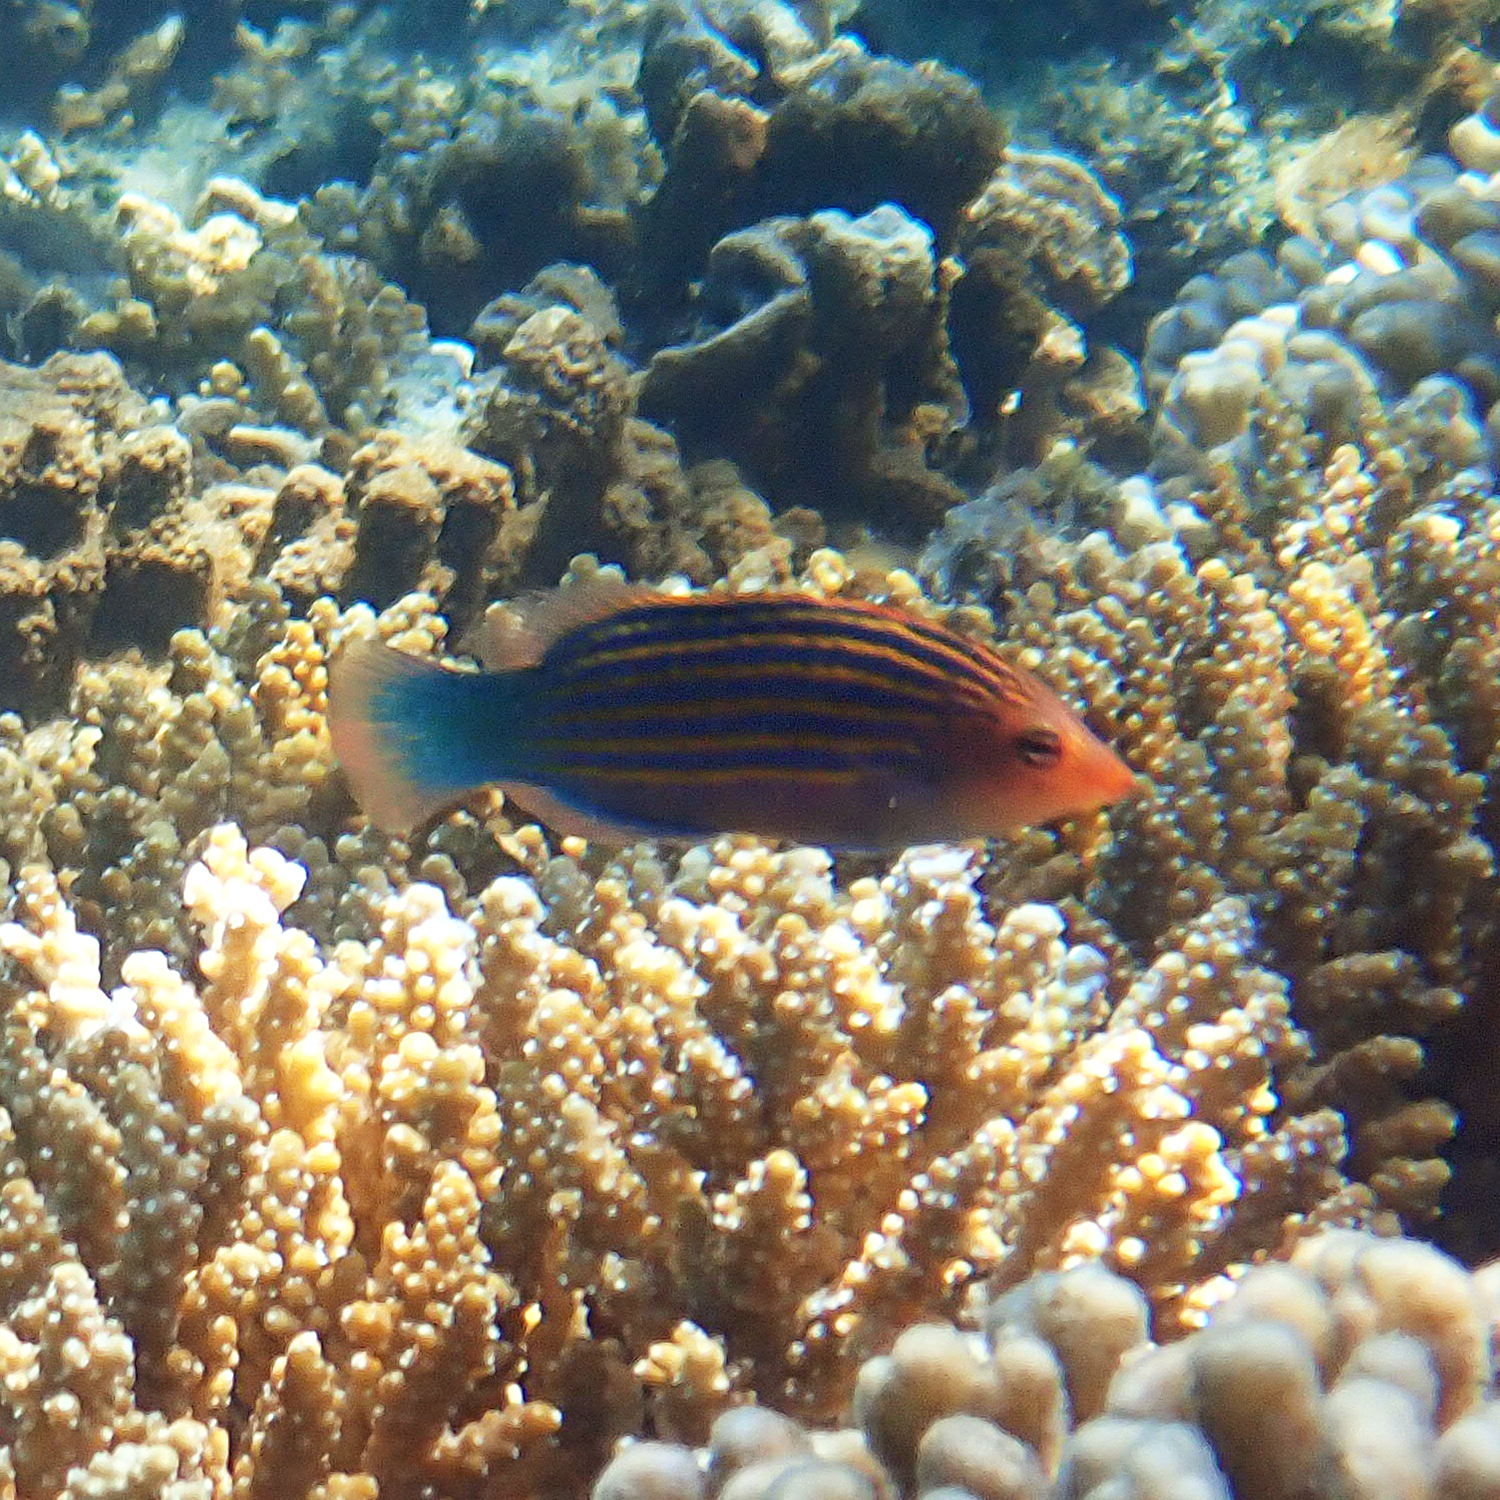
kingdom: Animalia
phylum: Chordata
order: Perciformes
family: Labridae
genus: Pseudocheilinus
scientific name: Pseudocheilinus hexataenia
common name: Sixline wrasse
